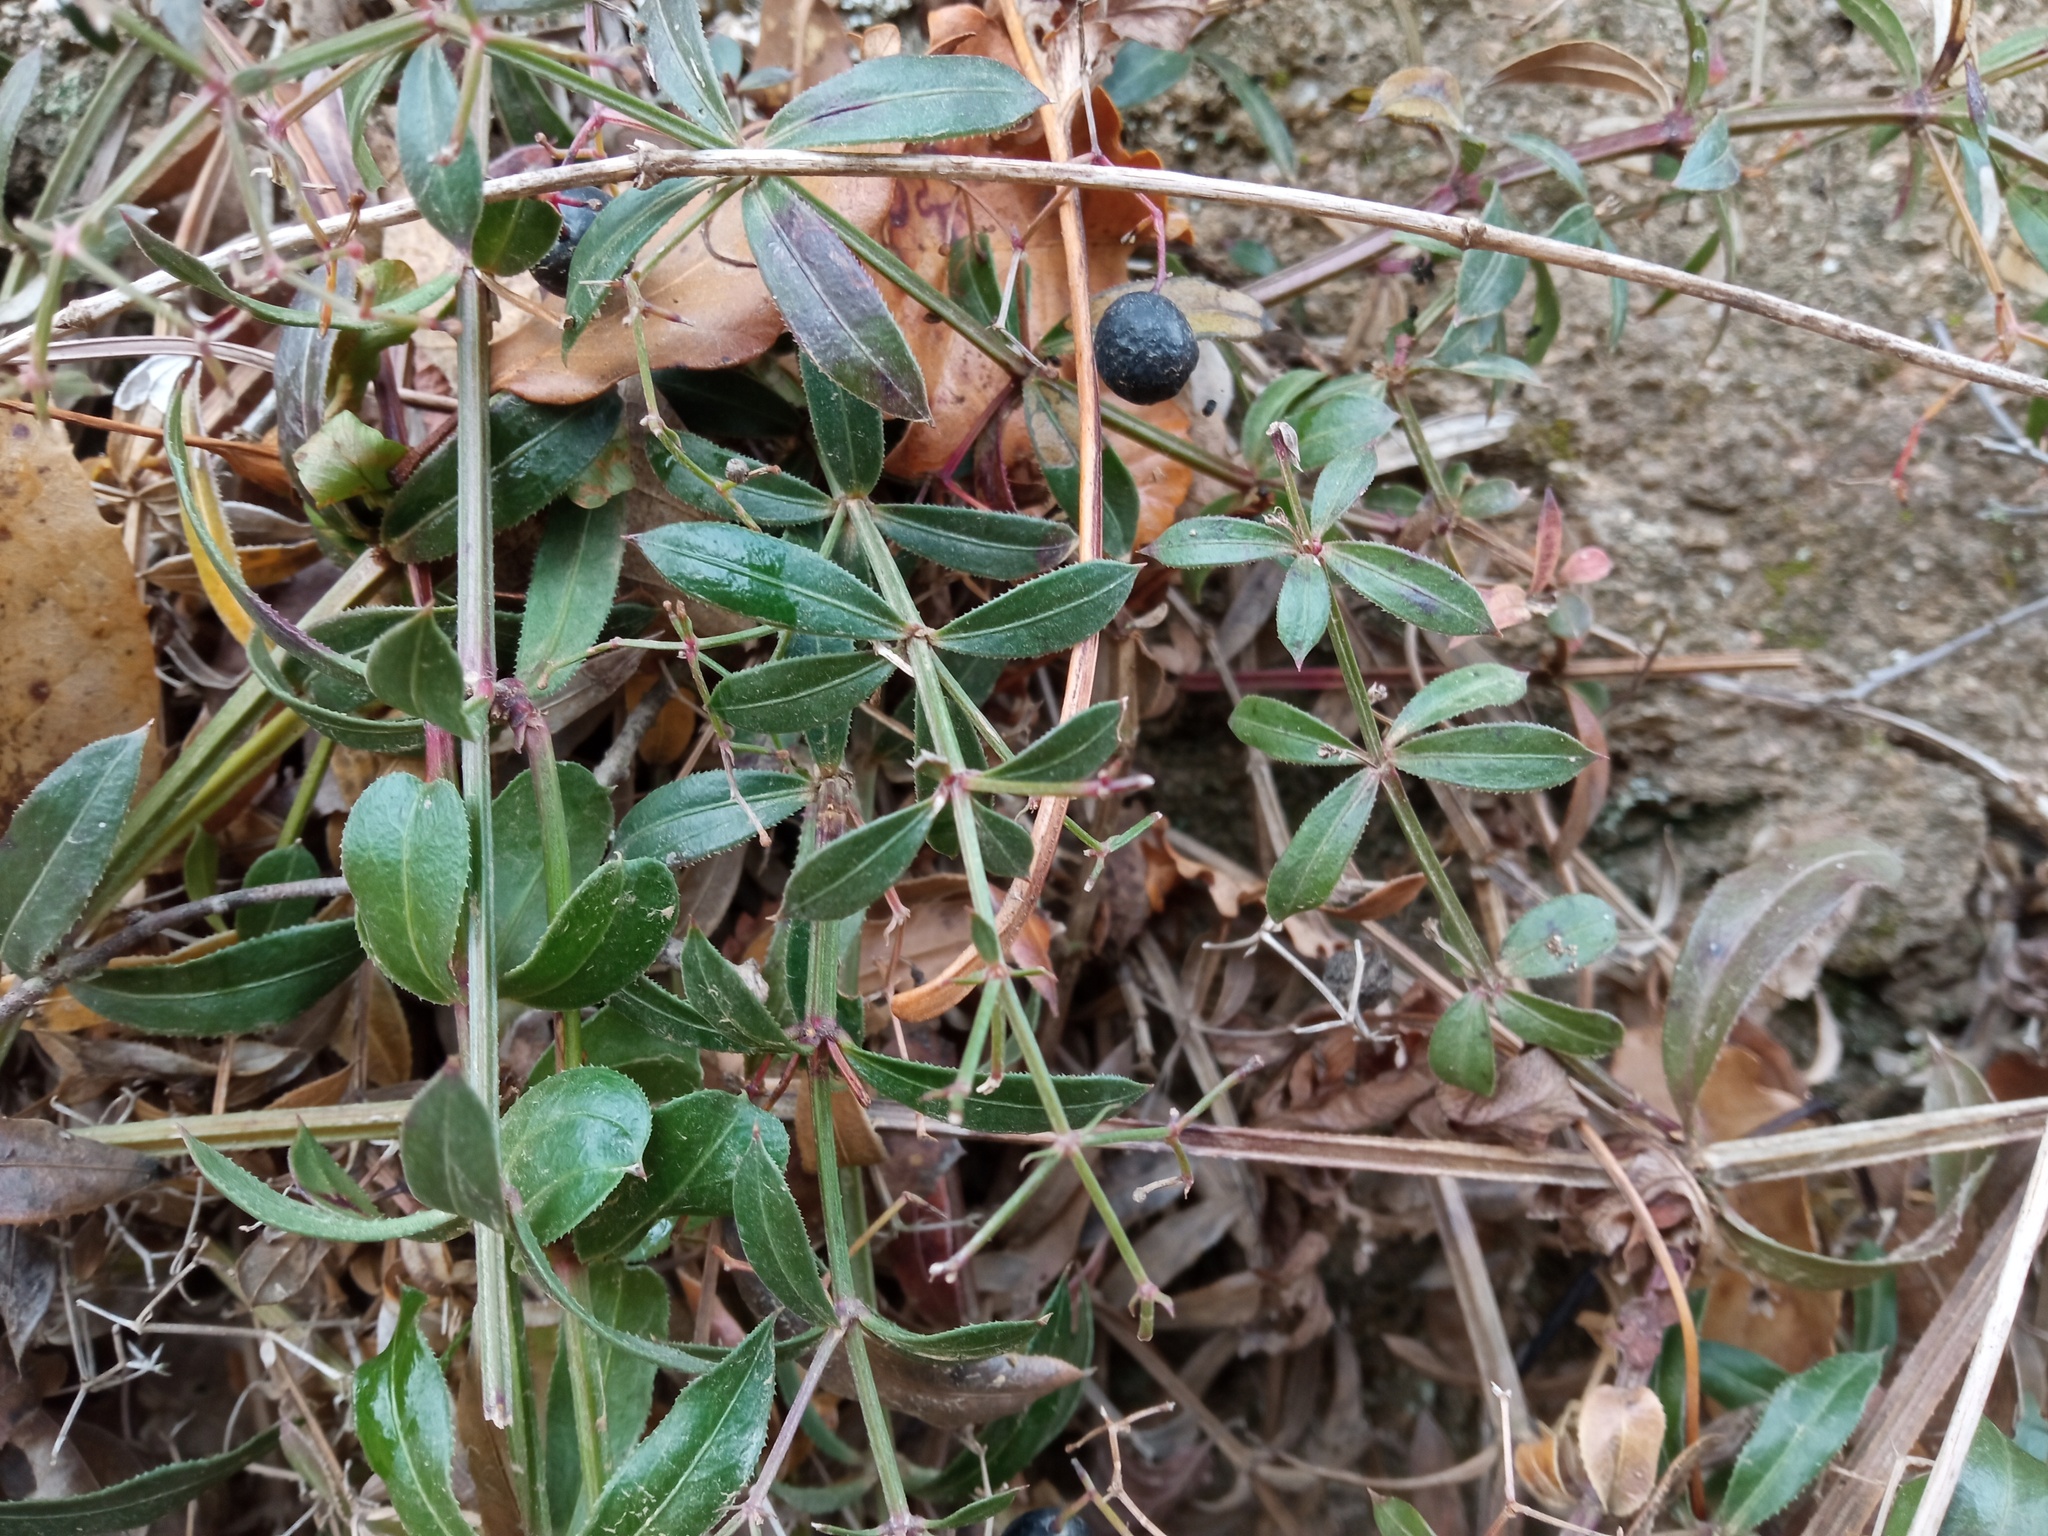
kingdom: Plantae
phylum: Tracheophyta
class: Magnoliopsida
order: Gentianales
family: Rubiaceae
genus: Rubia
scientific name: Rubia peregrina
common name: Wild madder
